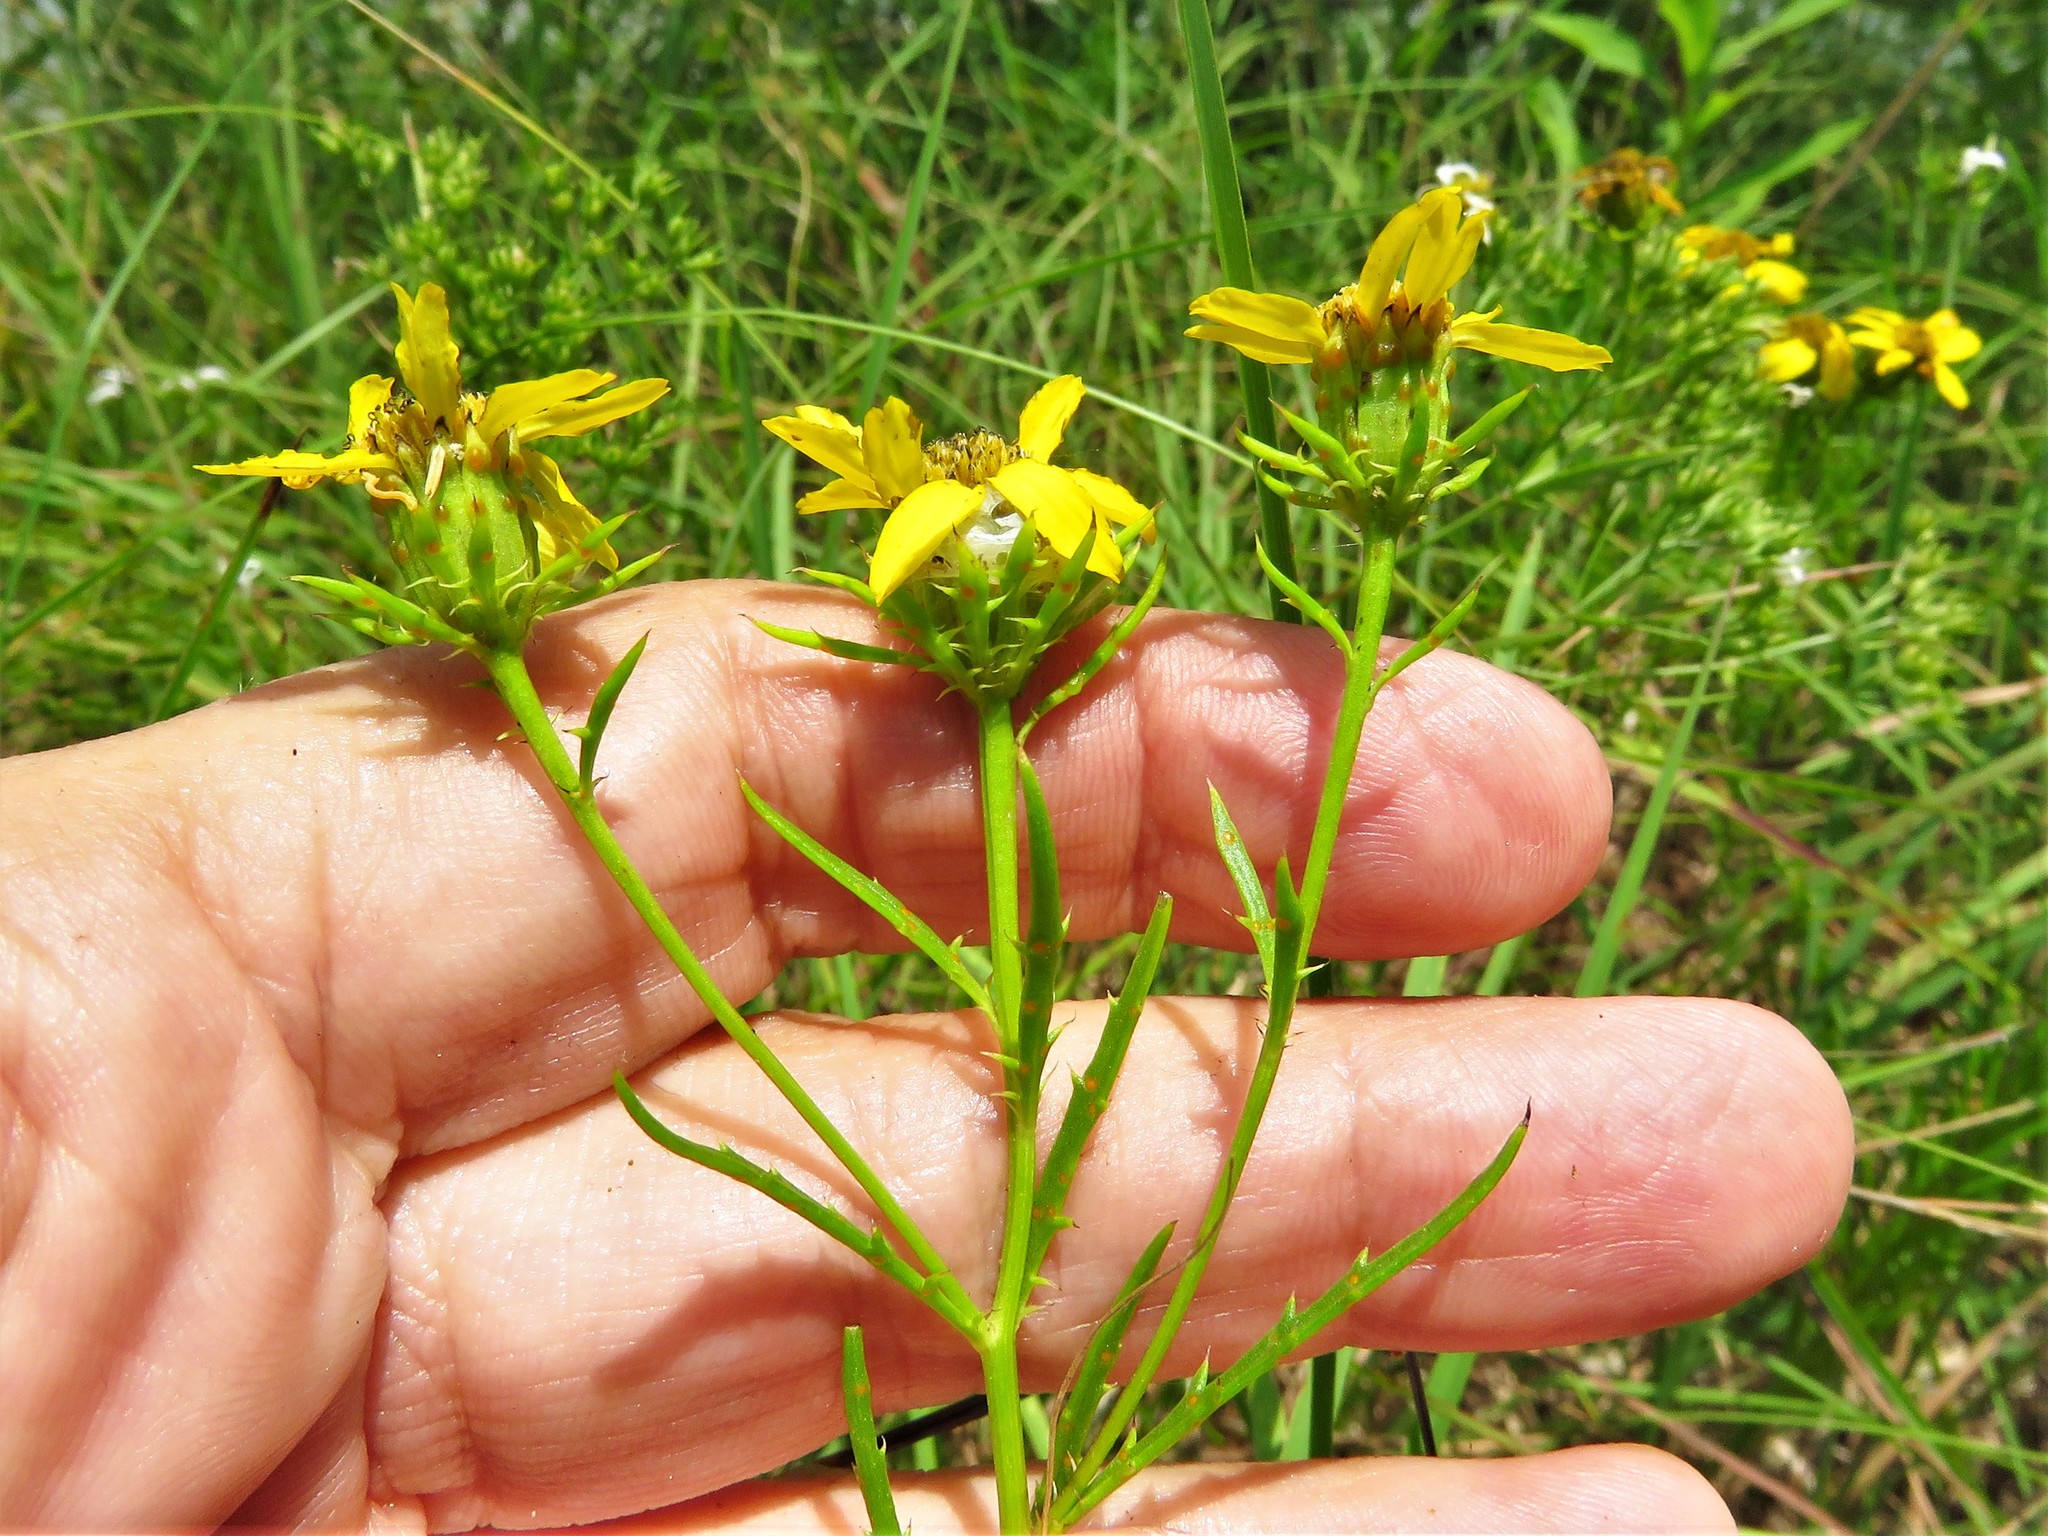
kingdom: Plantae
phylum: Tracheophyta
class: Magnoliopsida
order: Asterales
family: Asteraceae
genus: Dysodiopsis
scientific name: Dysodiopsis tagetoides
